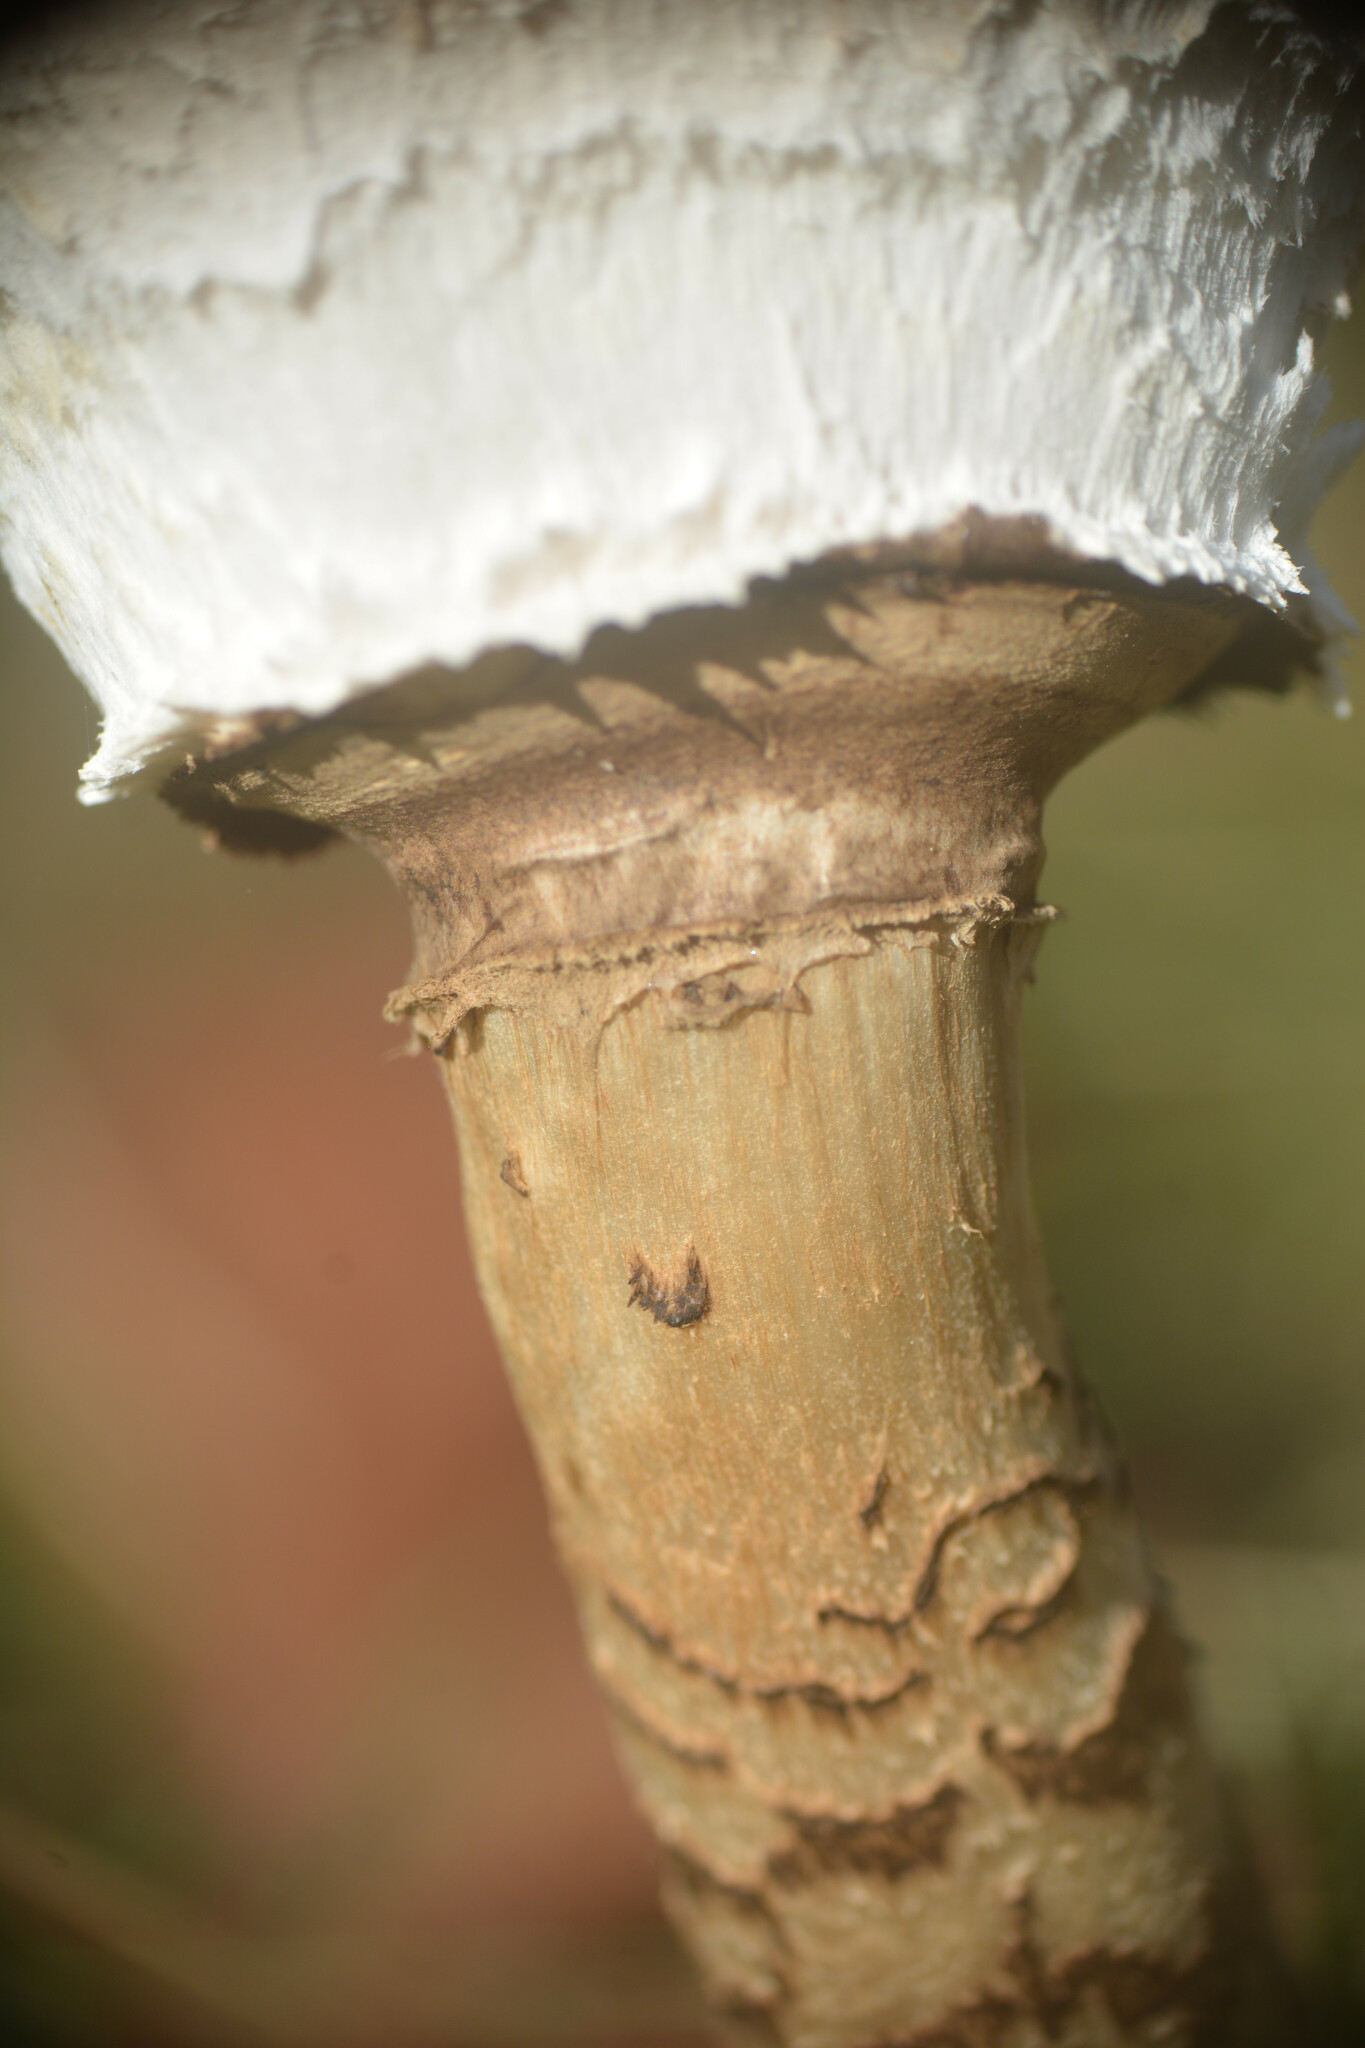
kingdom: Fungi
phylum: Basidiomycota
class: Agaricomycetes
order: Agaricales
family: Agaricaceae
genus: Macrolepiota
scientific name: Macrolepiota procera
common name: Parasol
